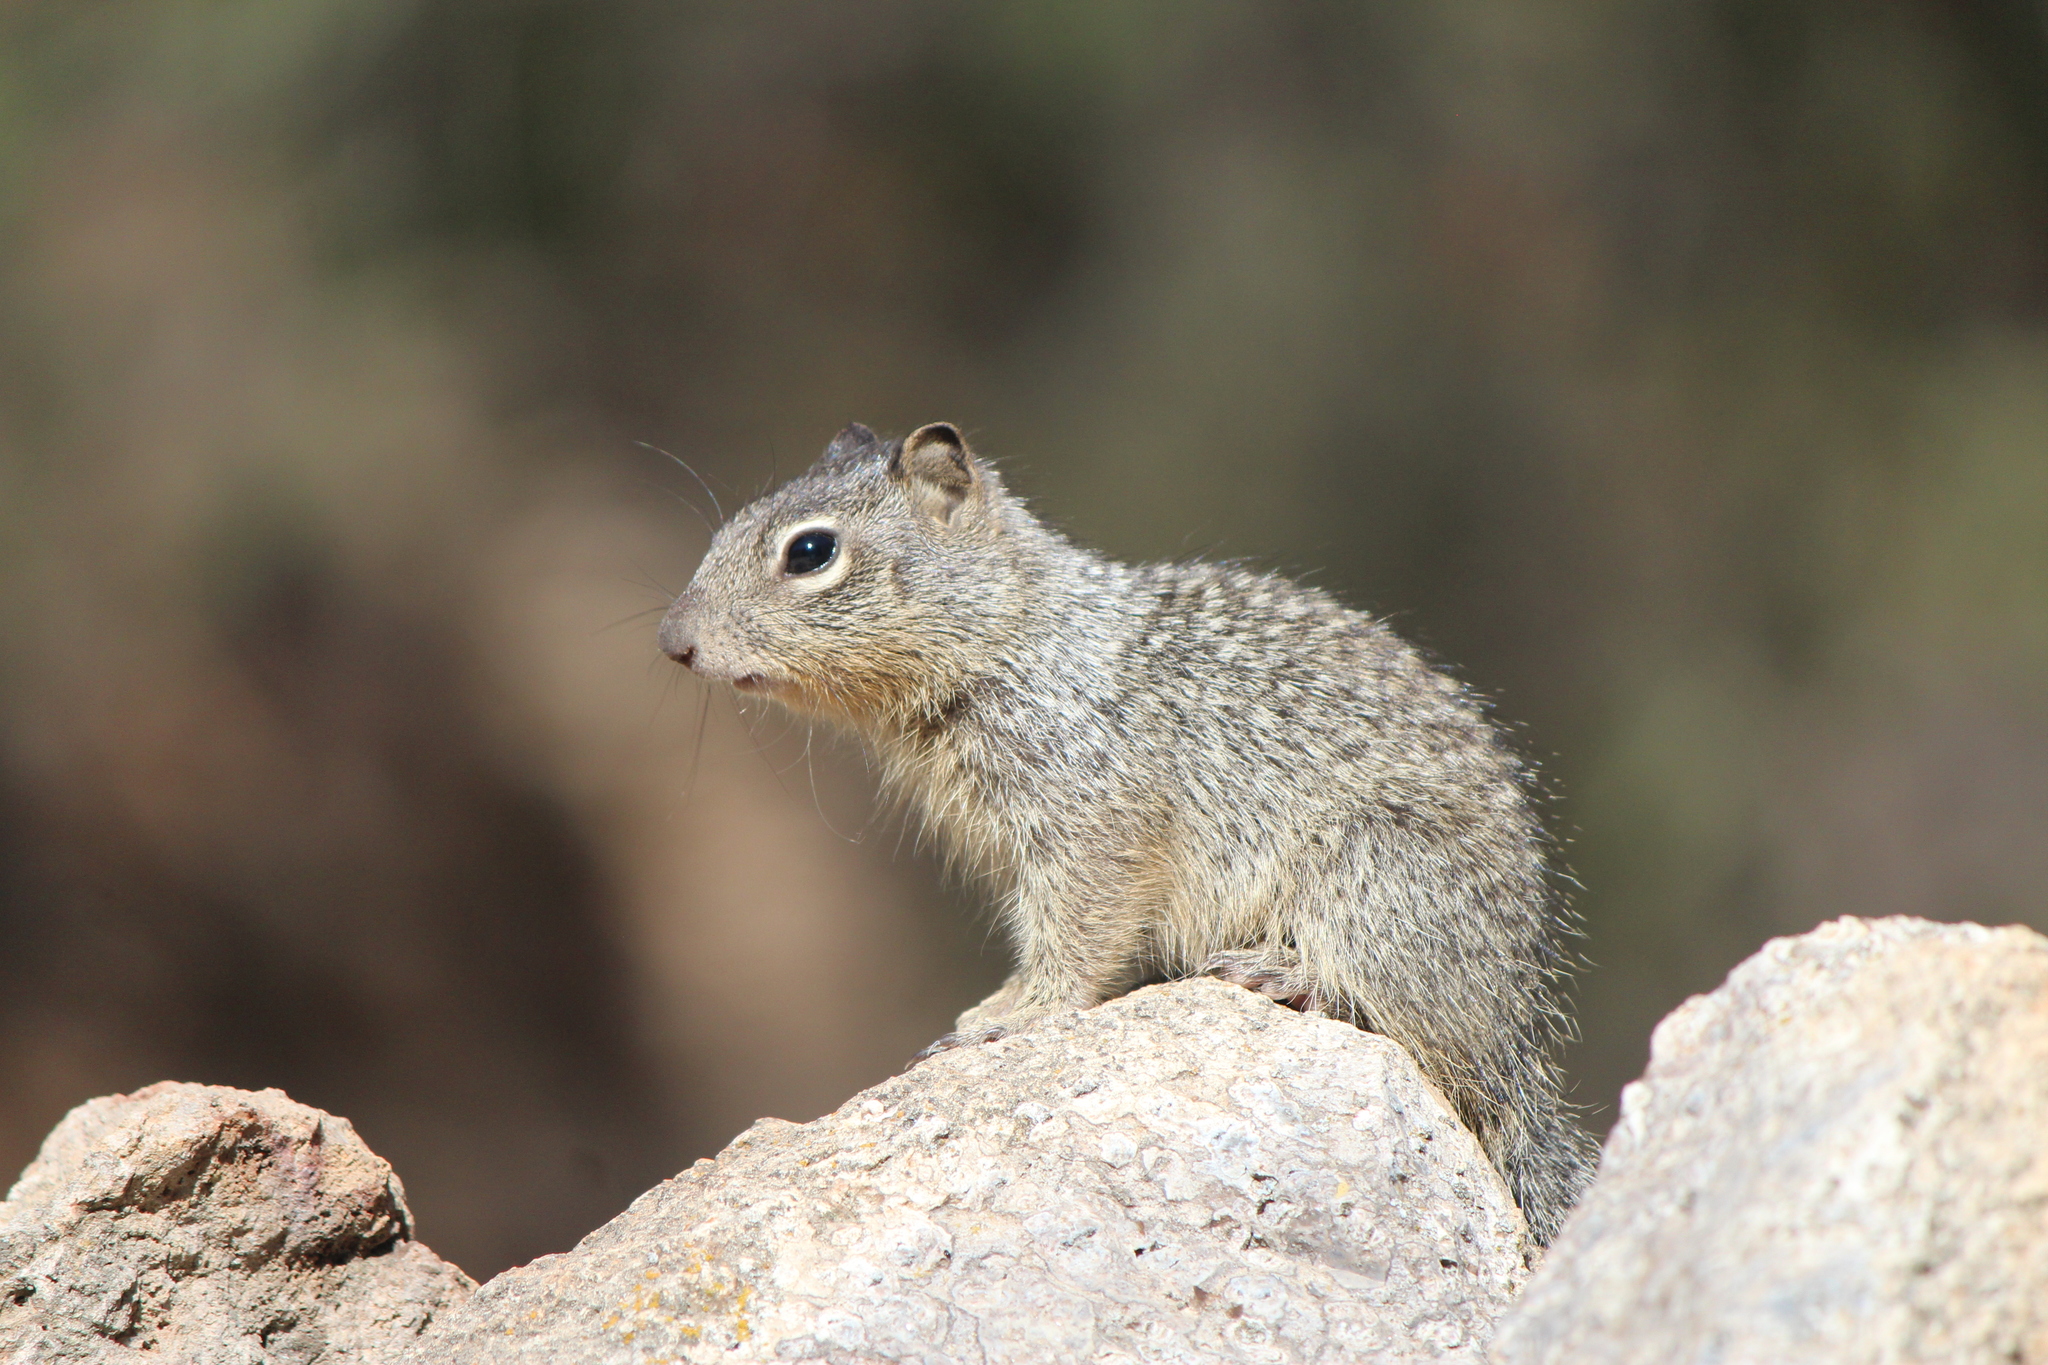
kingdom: Animalia
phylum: Chordata
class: Mammalia
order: Rodentia
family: Sciuridae
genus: Otospermophilus
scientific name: Otospermophilus variegatus
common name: Rock squirrel
